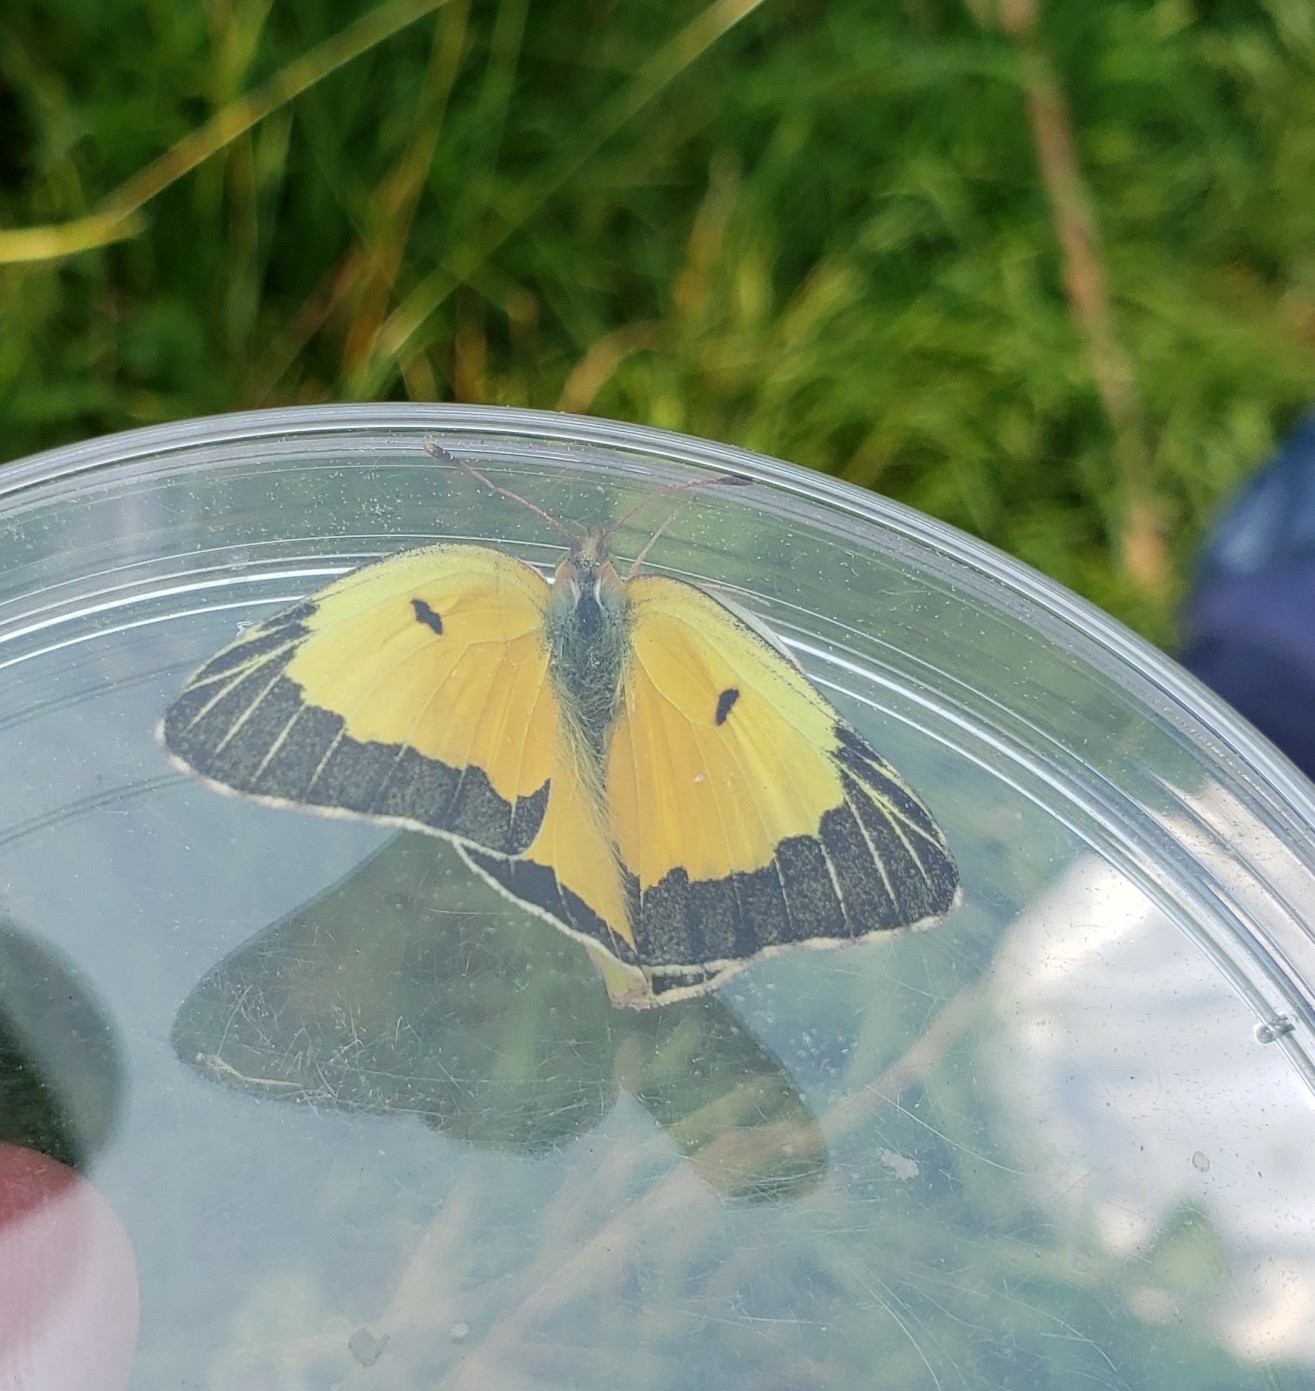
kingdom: Animalia
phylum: Arthropoda
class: Insecta
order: Lepidoptera
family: Pieridae
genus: Colias
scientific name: Colias eurytheme
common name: Alfalfa butterfly
